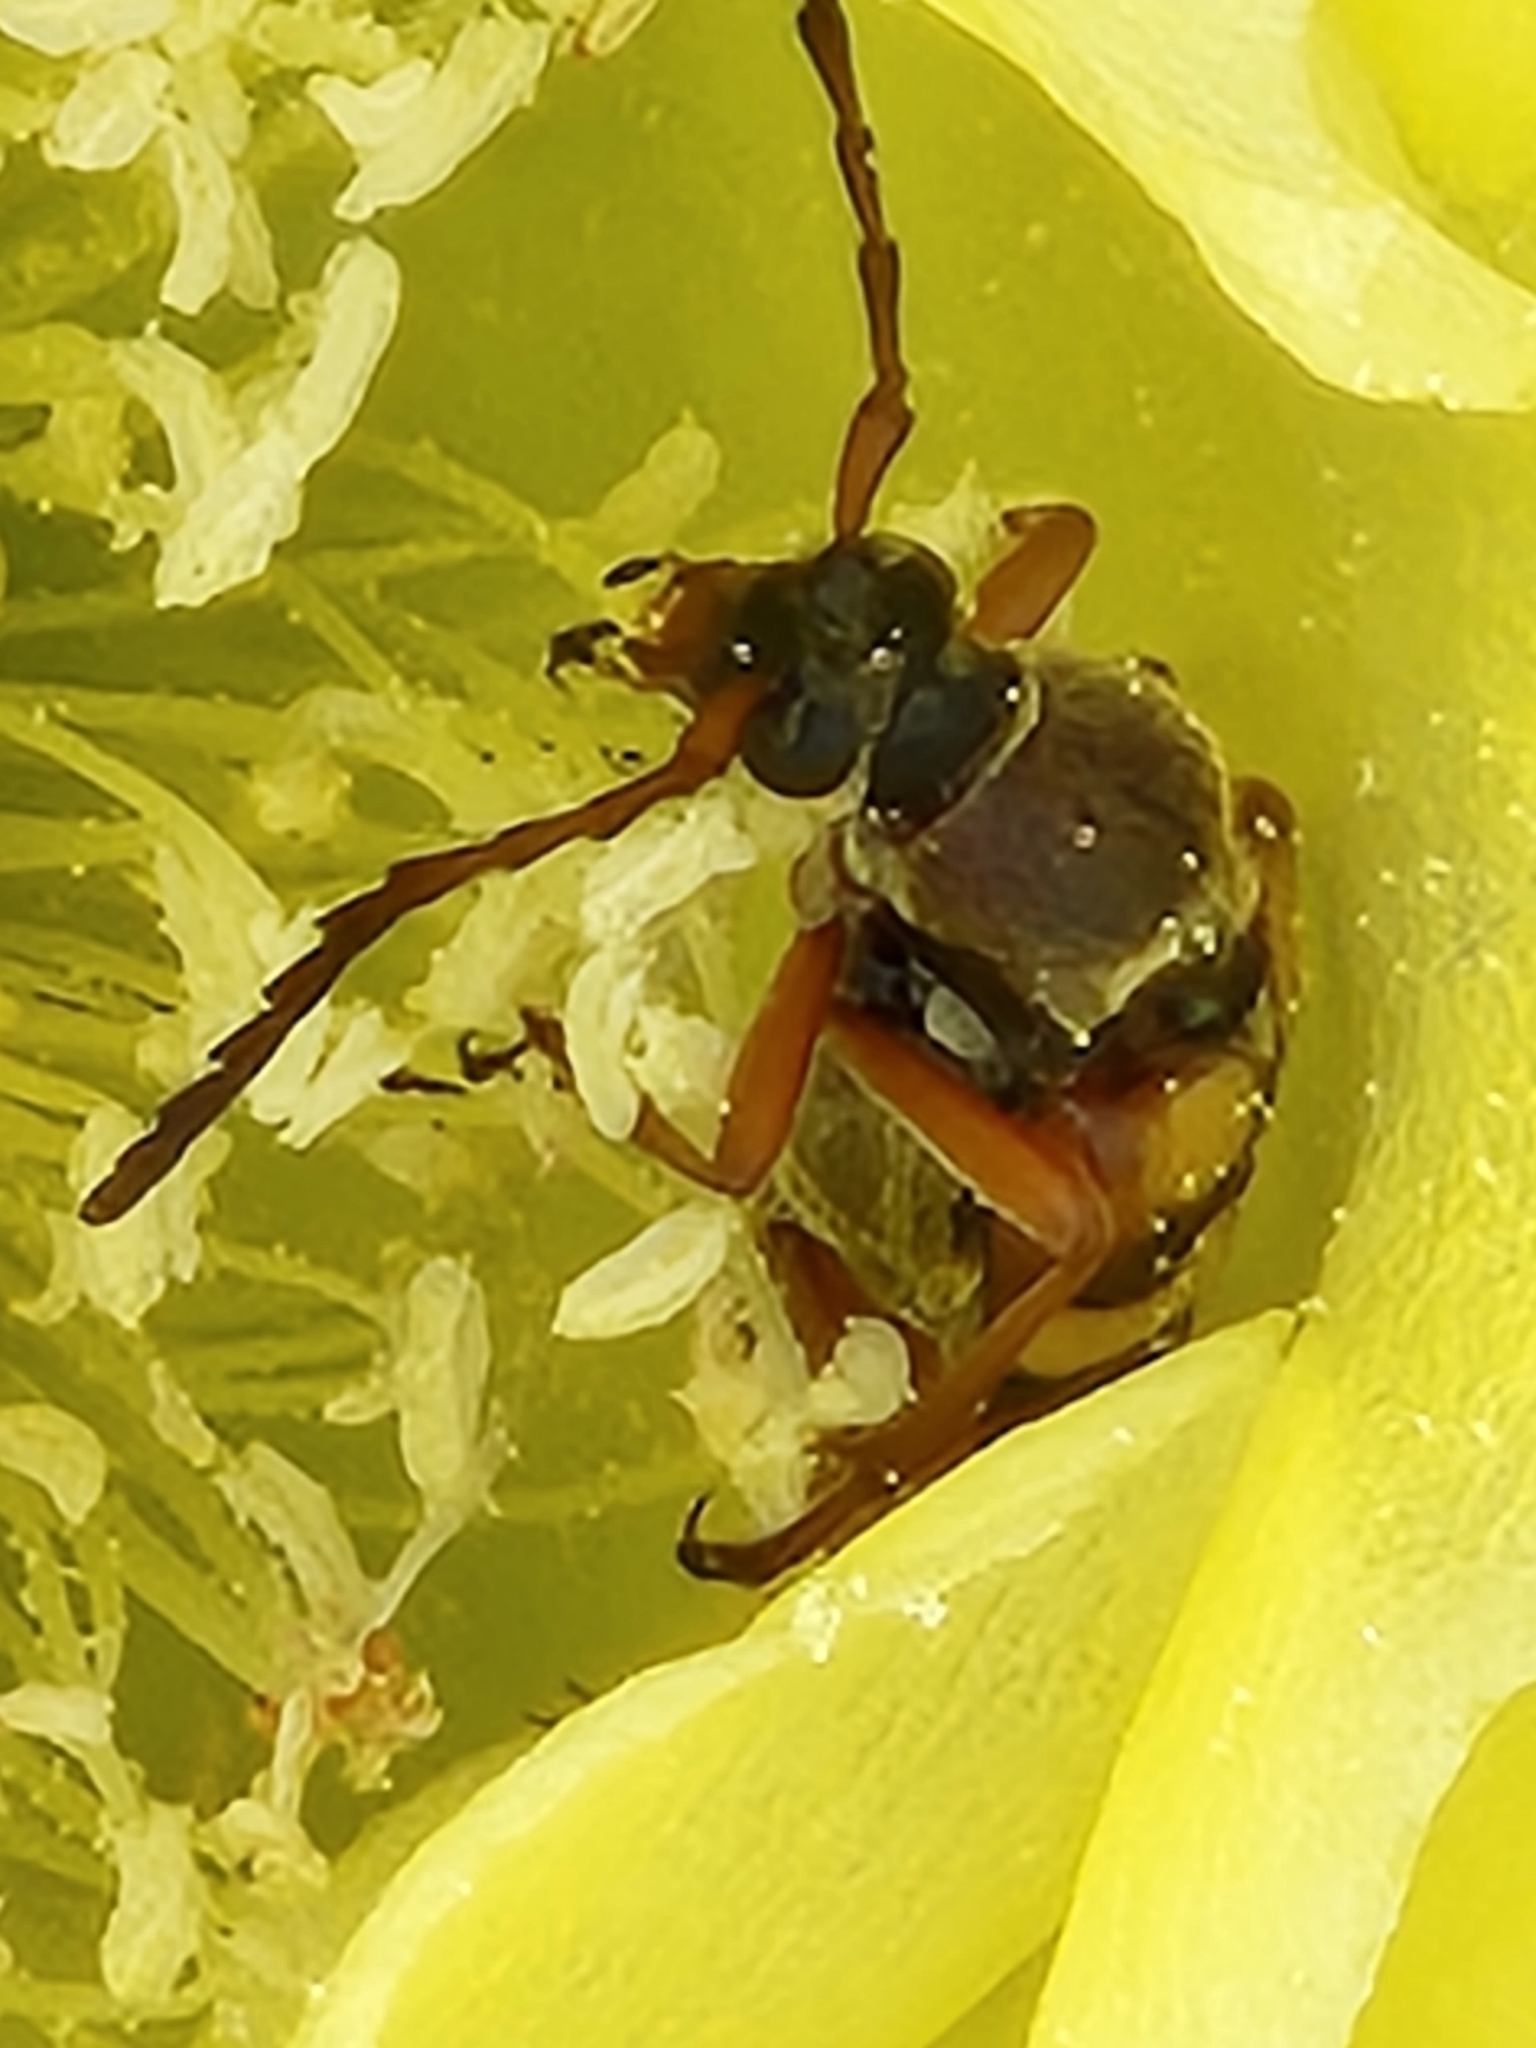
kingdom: Animalia
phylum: Arthropoda
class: Insecta
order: Coleoptera
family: Cerambycidae
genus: Typocerus
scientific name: Typocerus sinuatus
